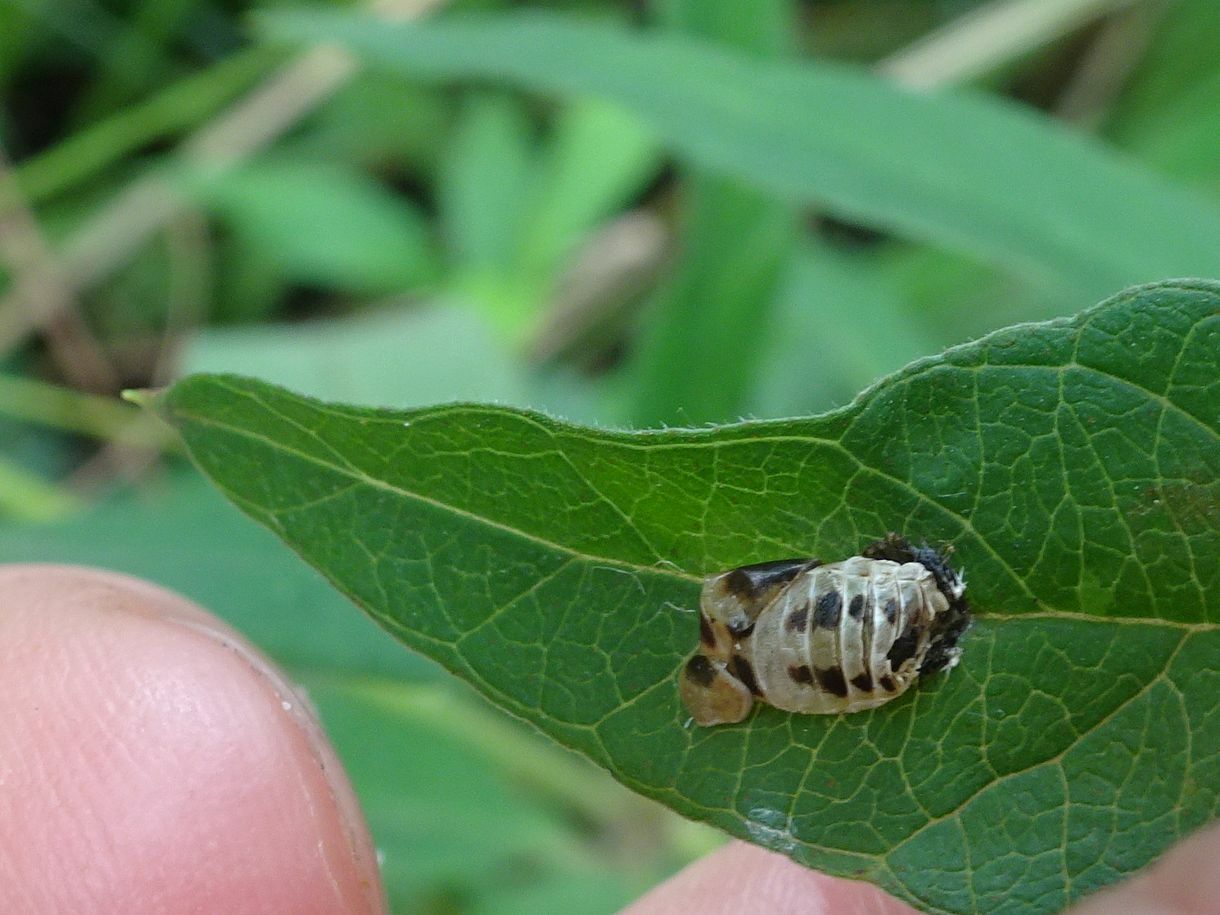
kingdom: Animalia
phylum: Arthropoda
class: Insecta
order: Coleoptera
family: Coccinellidae
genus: Harmonia
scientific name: Harmonia axyridis
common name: Harlequin ladybird
